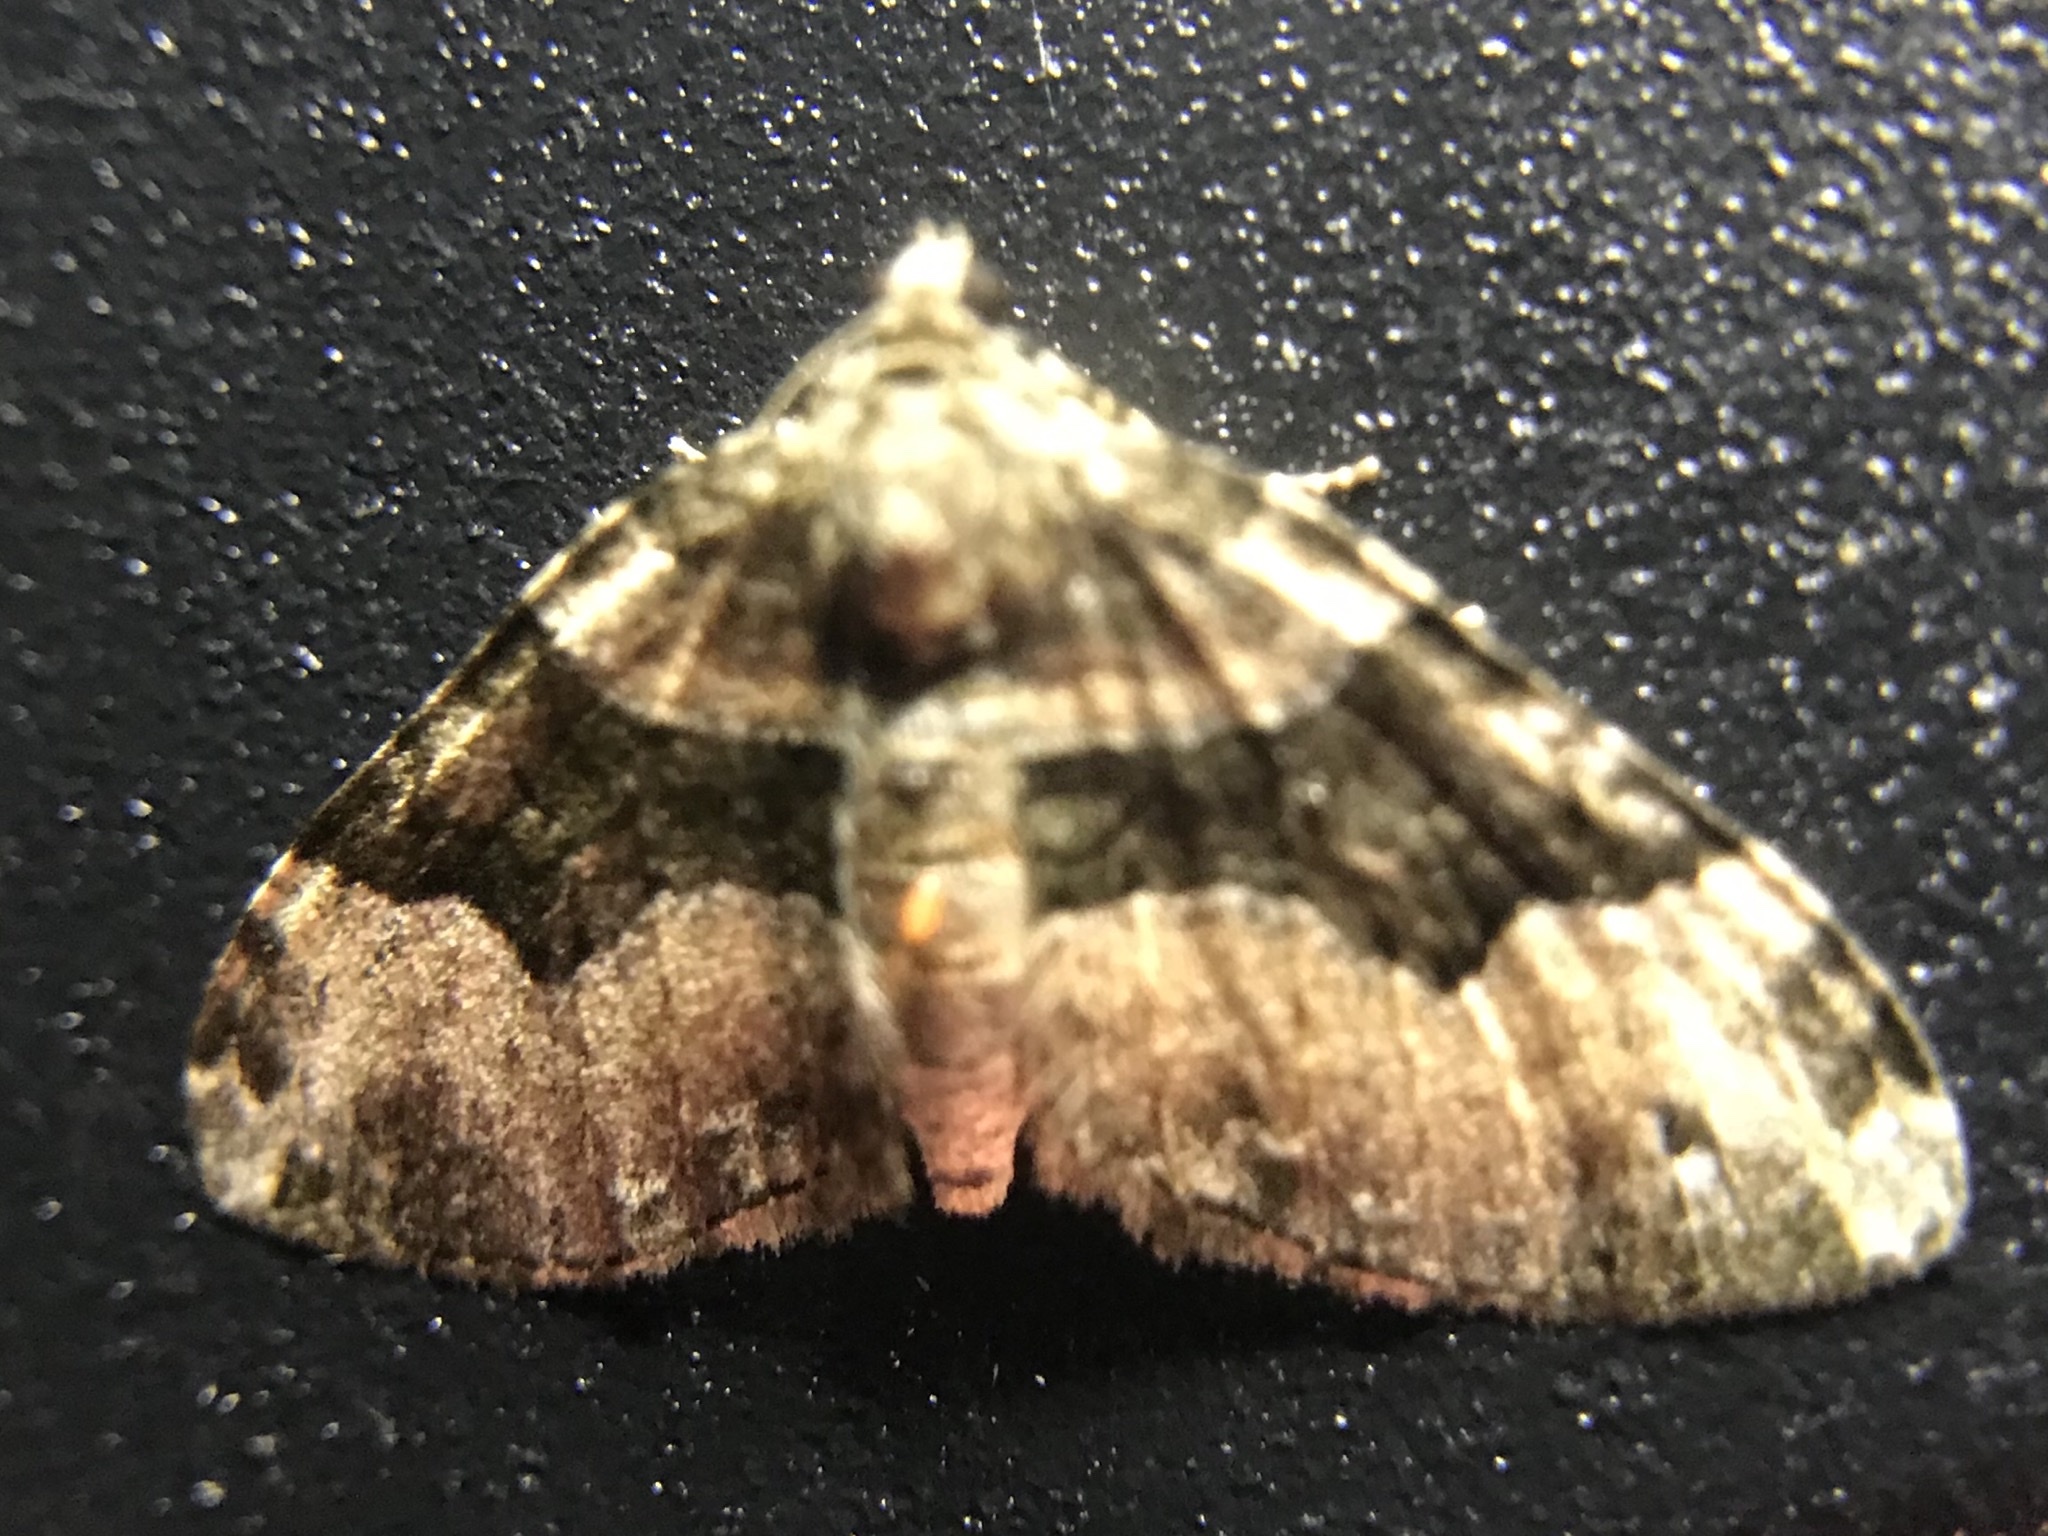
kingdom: Animalia
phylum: Arthropoda
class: Insecta
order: Lepidoptera
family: Geometridae
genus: Xanthorhoe
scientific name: Xanthorhoe lacustrata
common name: Toothed brown carpet
